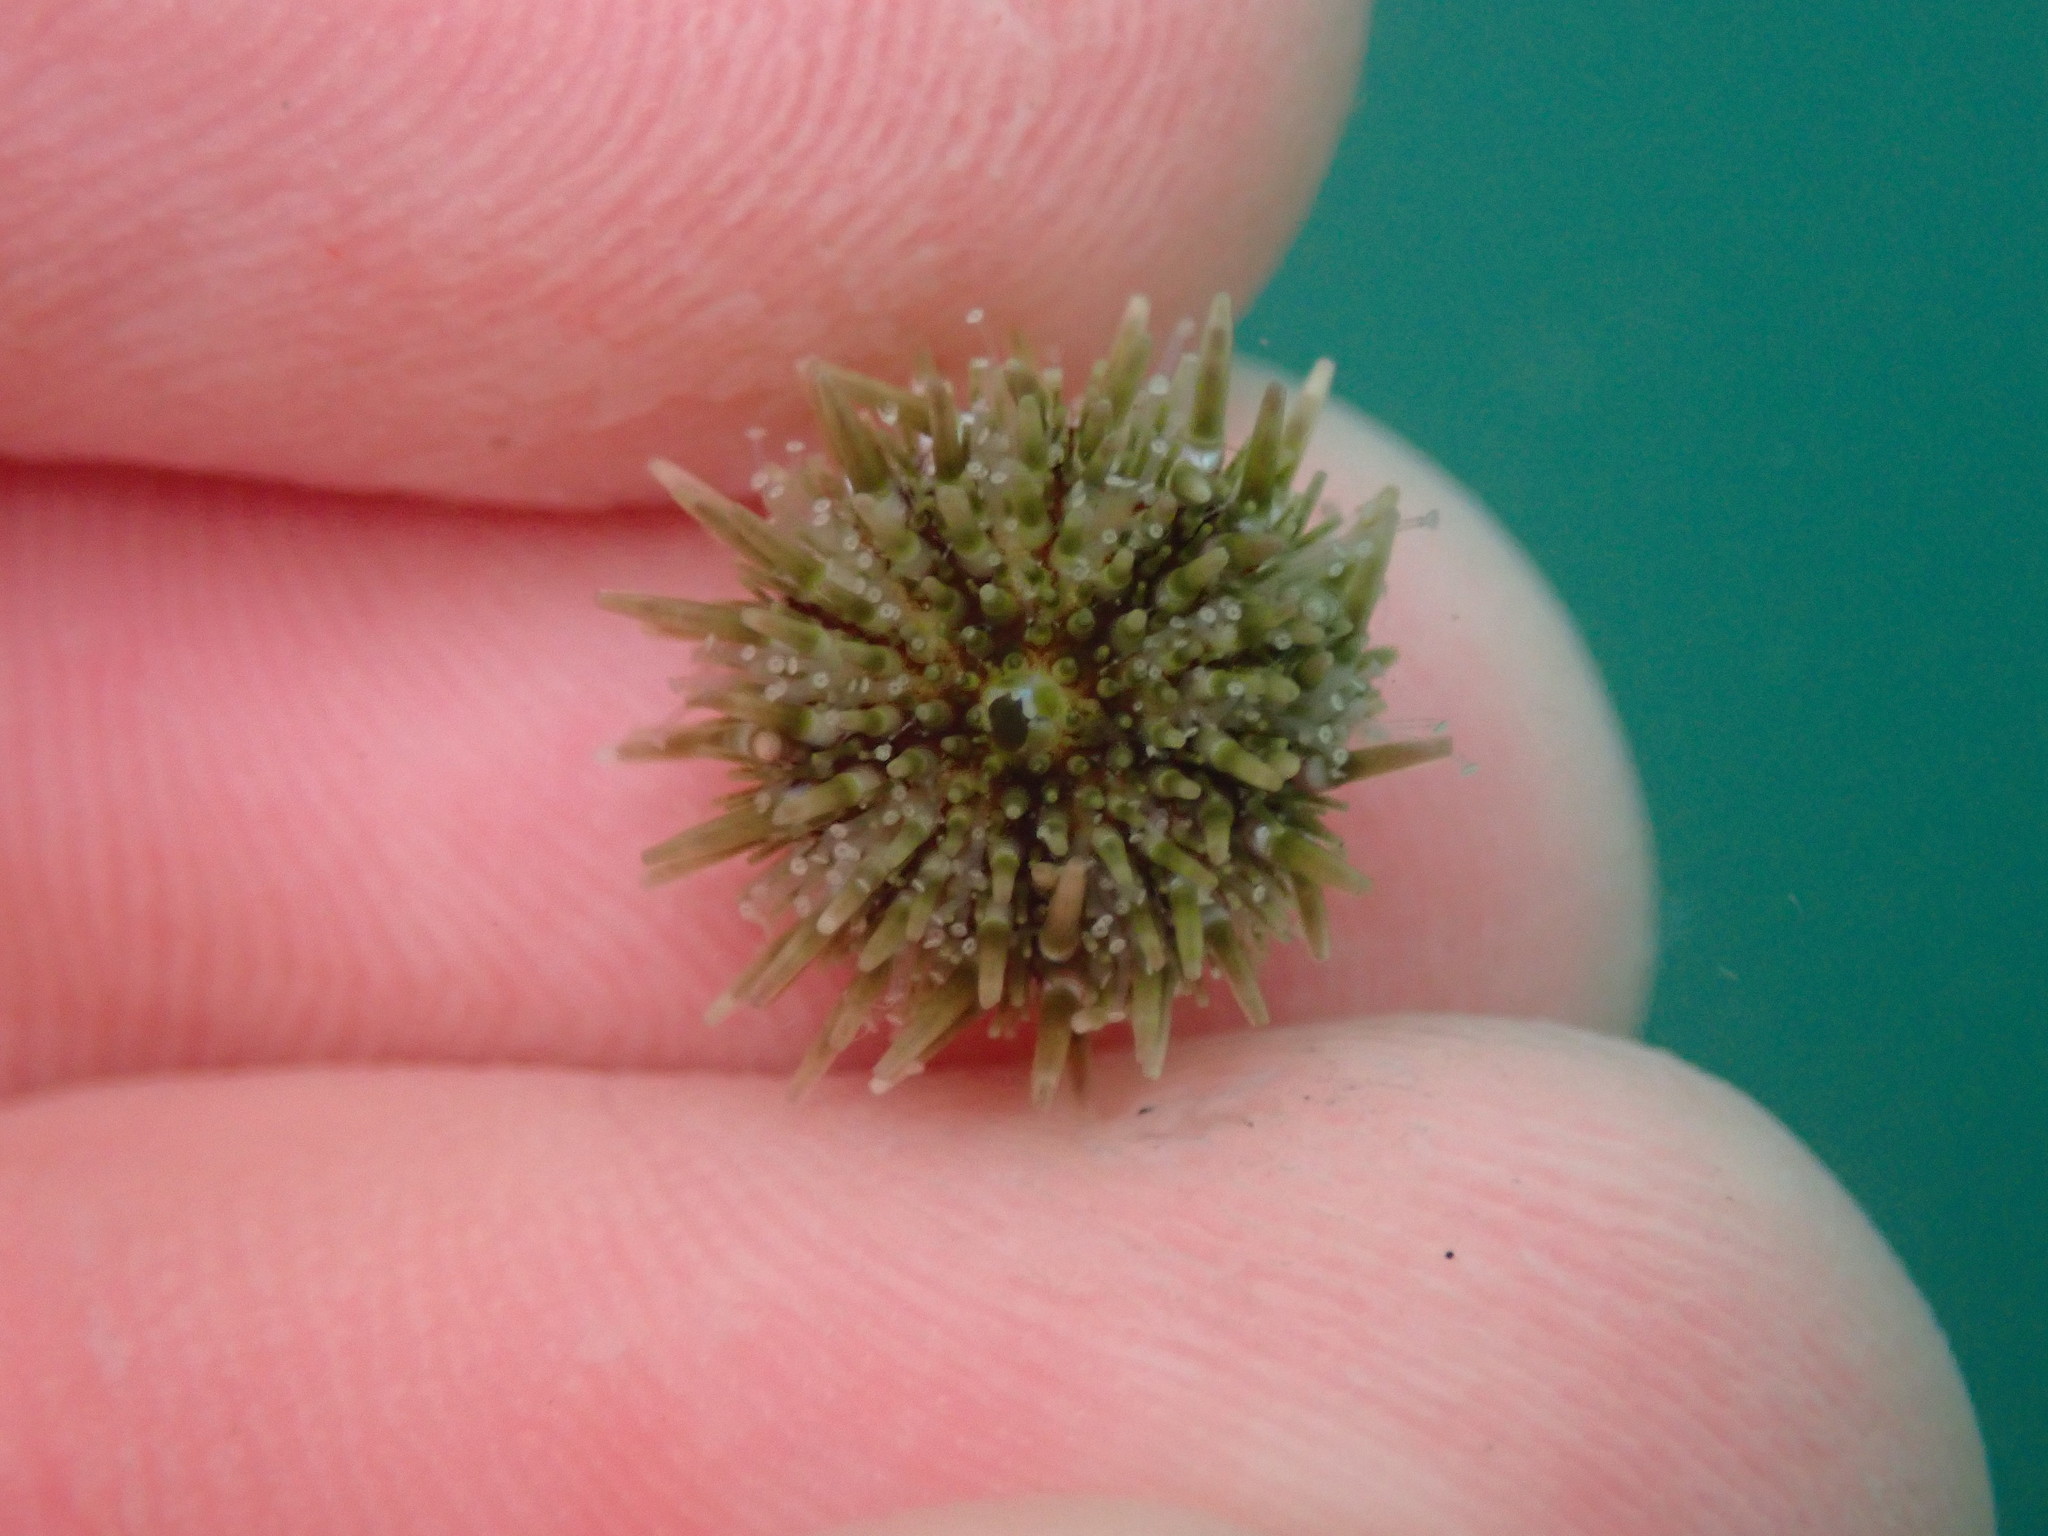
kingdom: Animalia
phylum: Echinodermata
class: Echinoidea
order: Camarodonta
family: Strongylocentrotidae
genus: Strongylocentrotus
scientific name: Strongylocentrotus purpuratus
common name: Purple sea urchin
